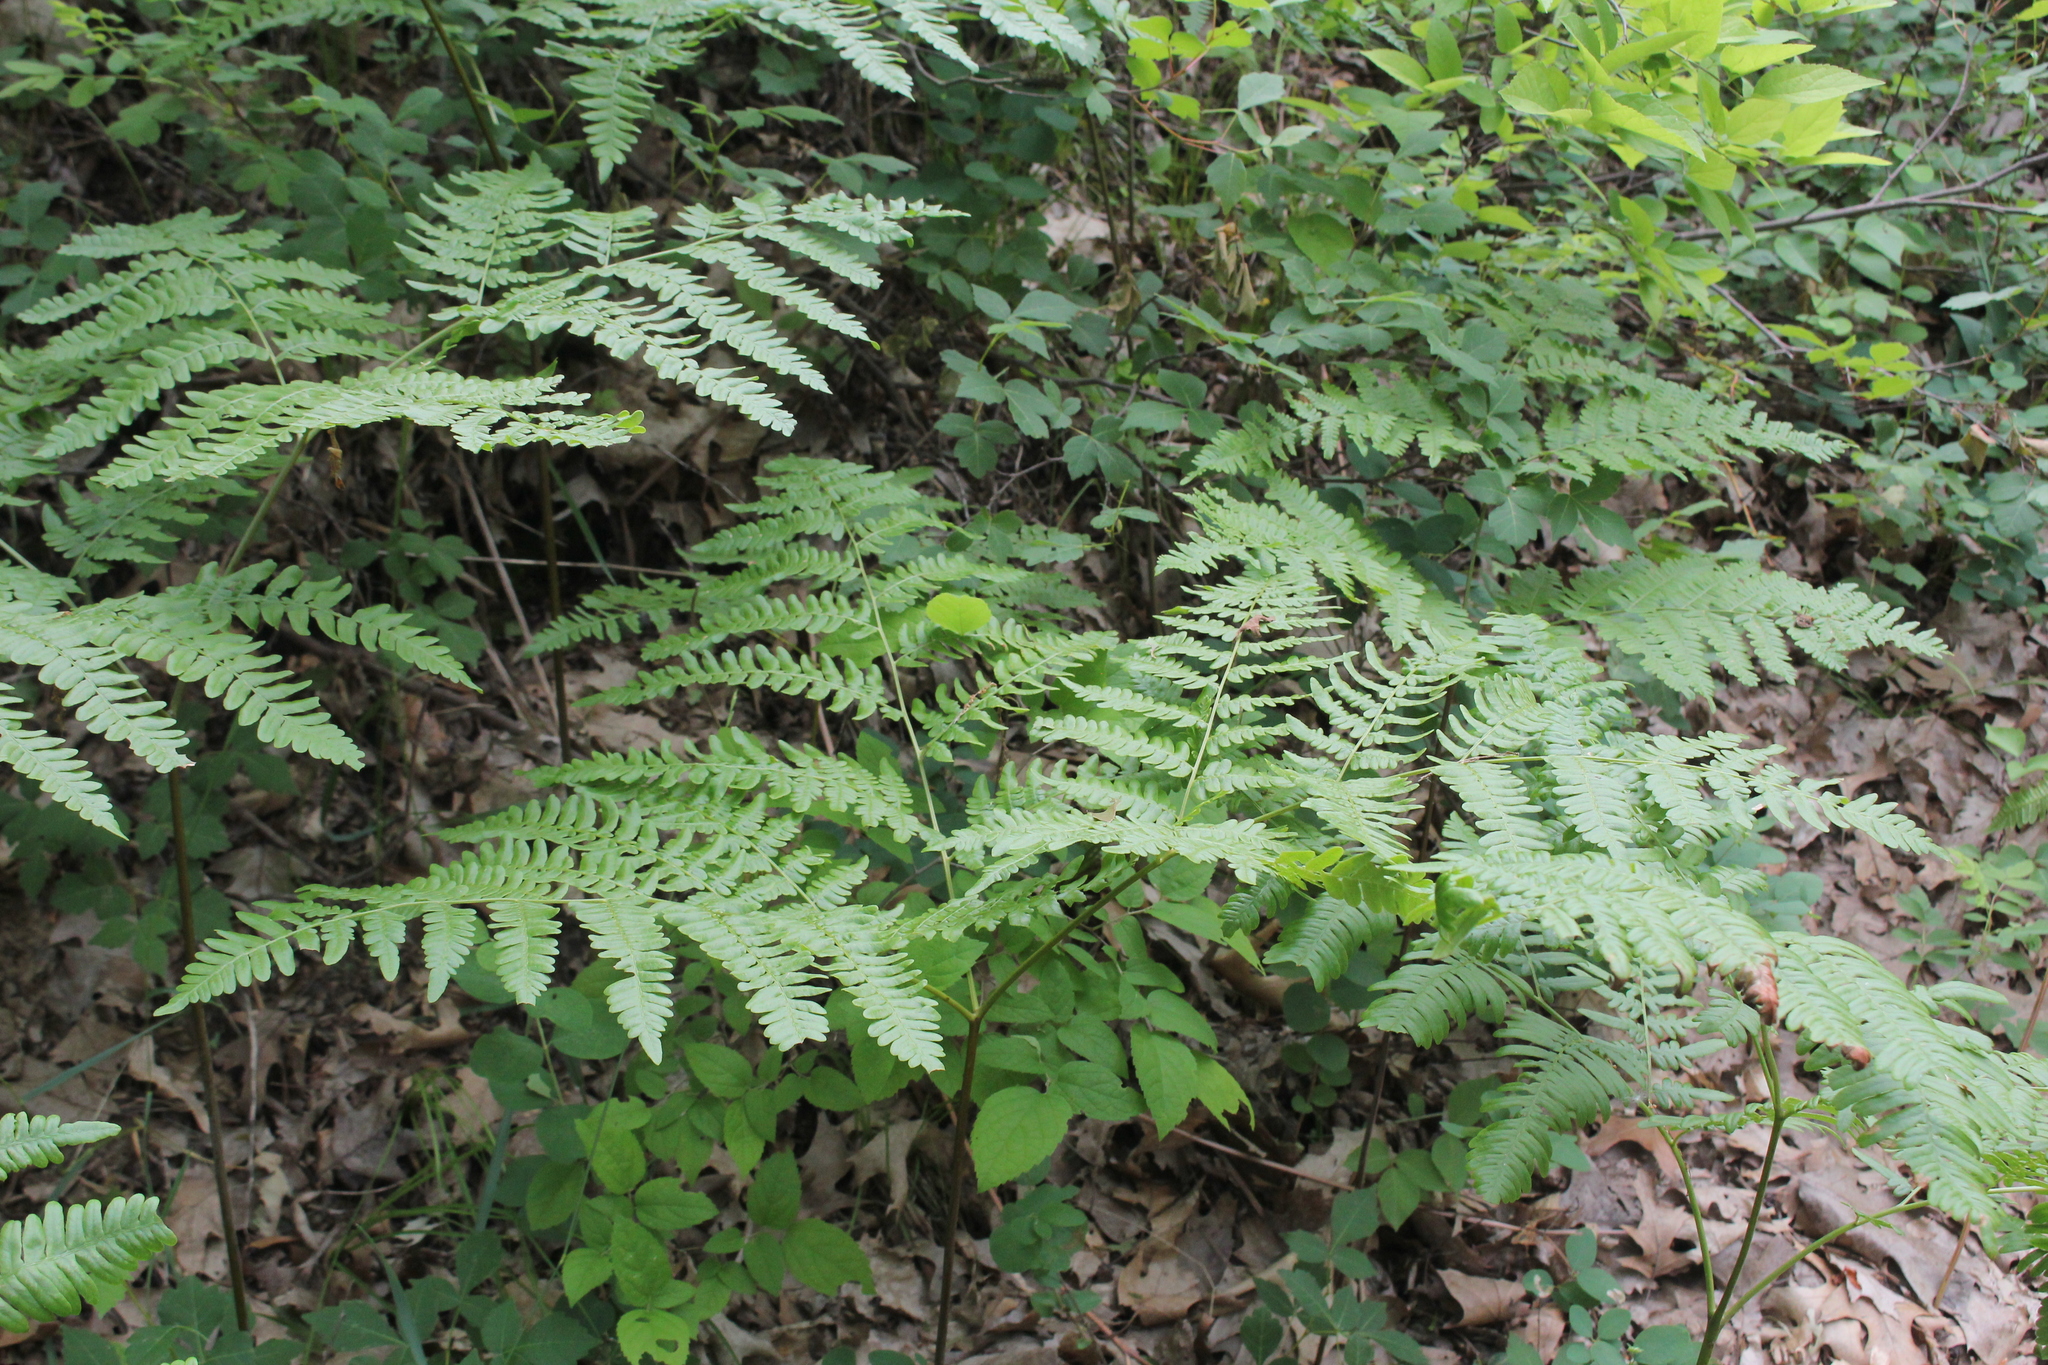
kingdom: Plantae
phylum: Tracheophyta
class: Polypodiopsida
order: Polypodiales
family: Dennstaedtiaceae
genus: Pteridium
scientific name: Pteridium aquilinum
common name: Bracken
